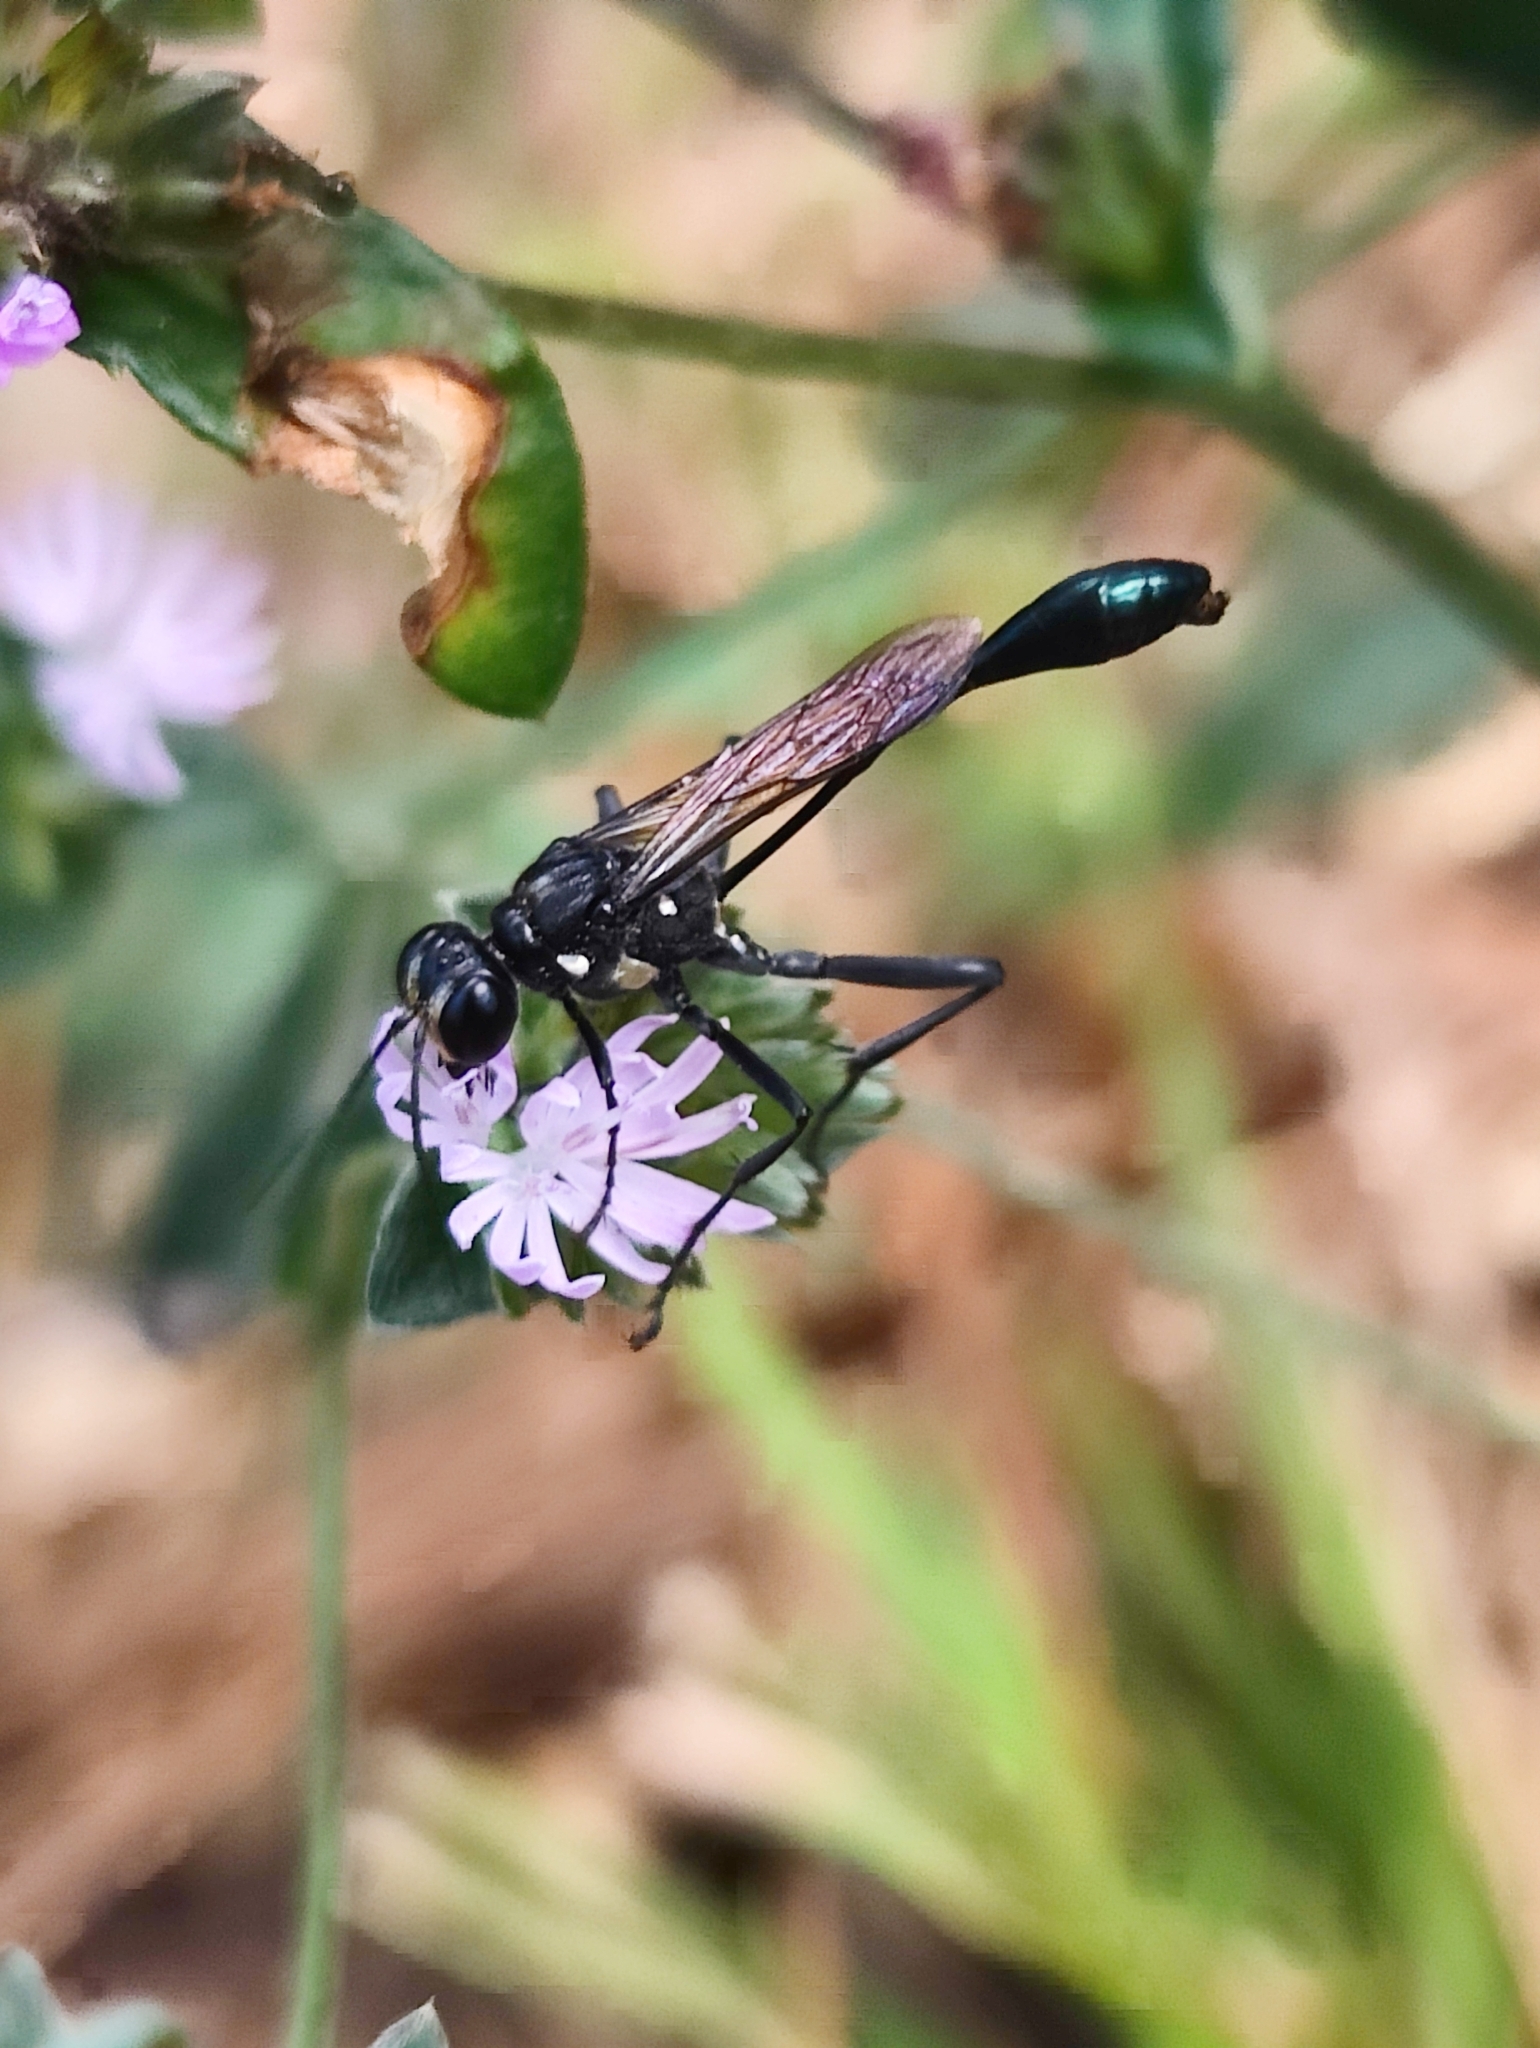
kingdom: Animalia
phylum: Arthropoda
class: Insecta
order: Hymenoptera
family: Sphecidae
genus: Eremnophila
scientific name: Eremnophila aureonotata
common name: Gold-marked thread-waisted wasp
